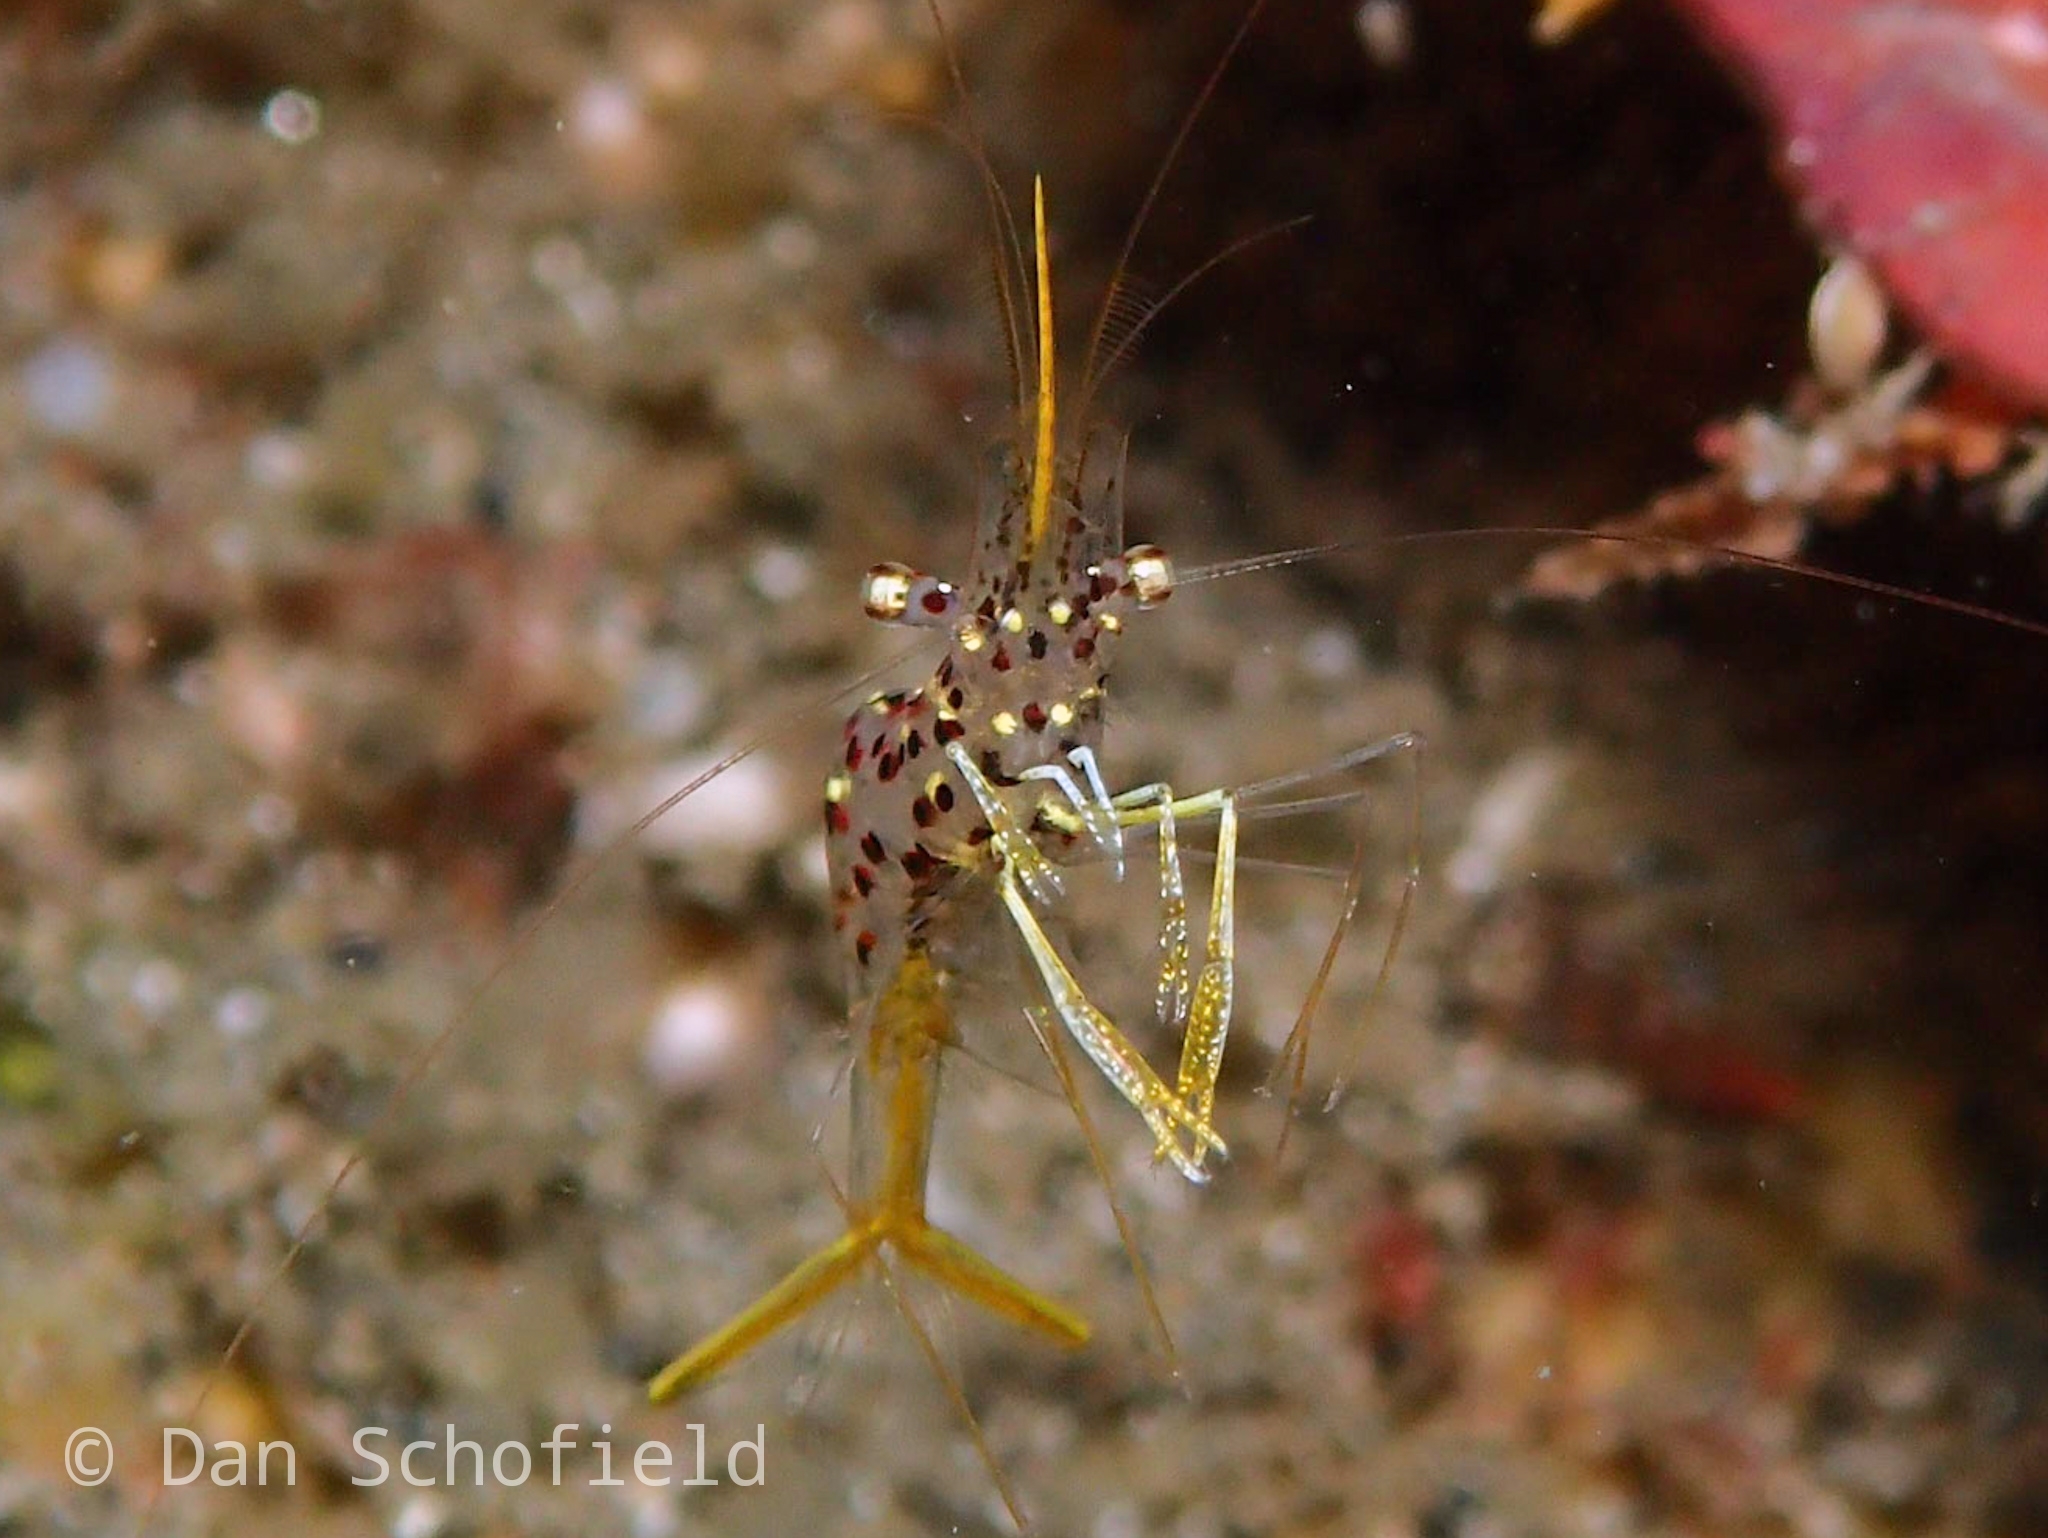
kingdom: Animalia
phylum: Arthropoda
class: Malacostraca
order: Decapoda
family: Palaemonidae
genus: Urocaridella
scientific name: Urocaridella degravei
